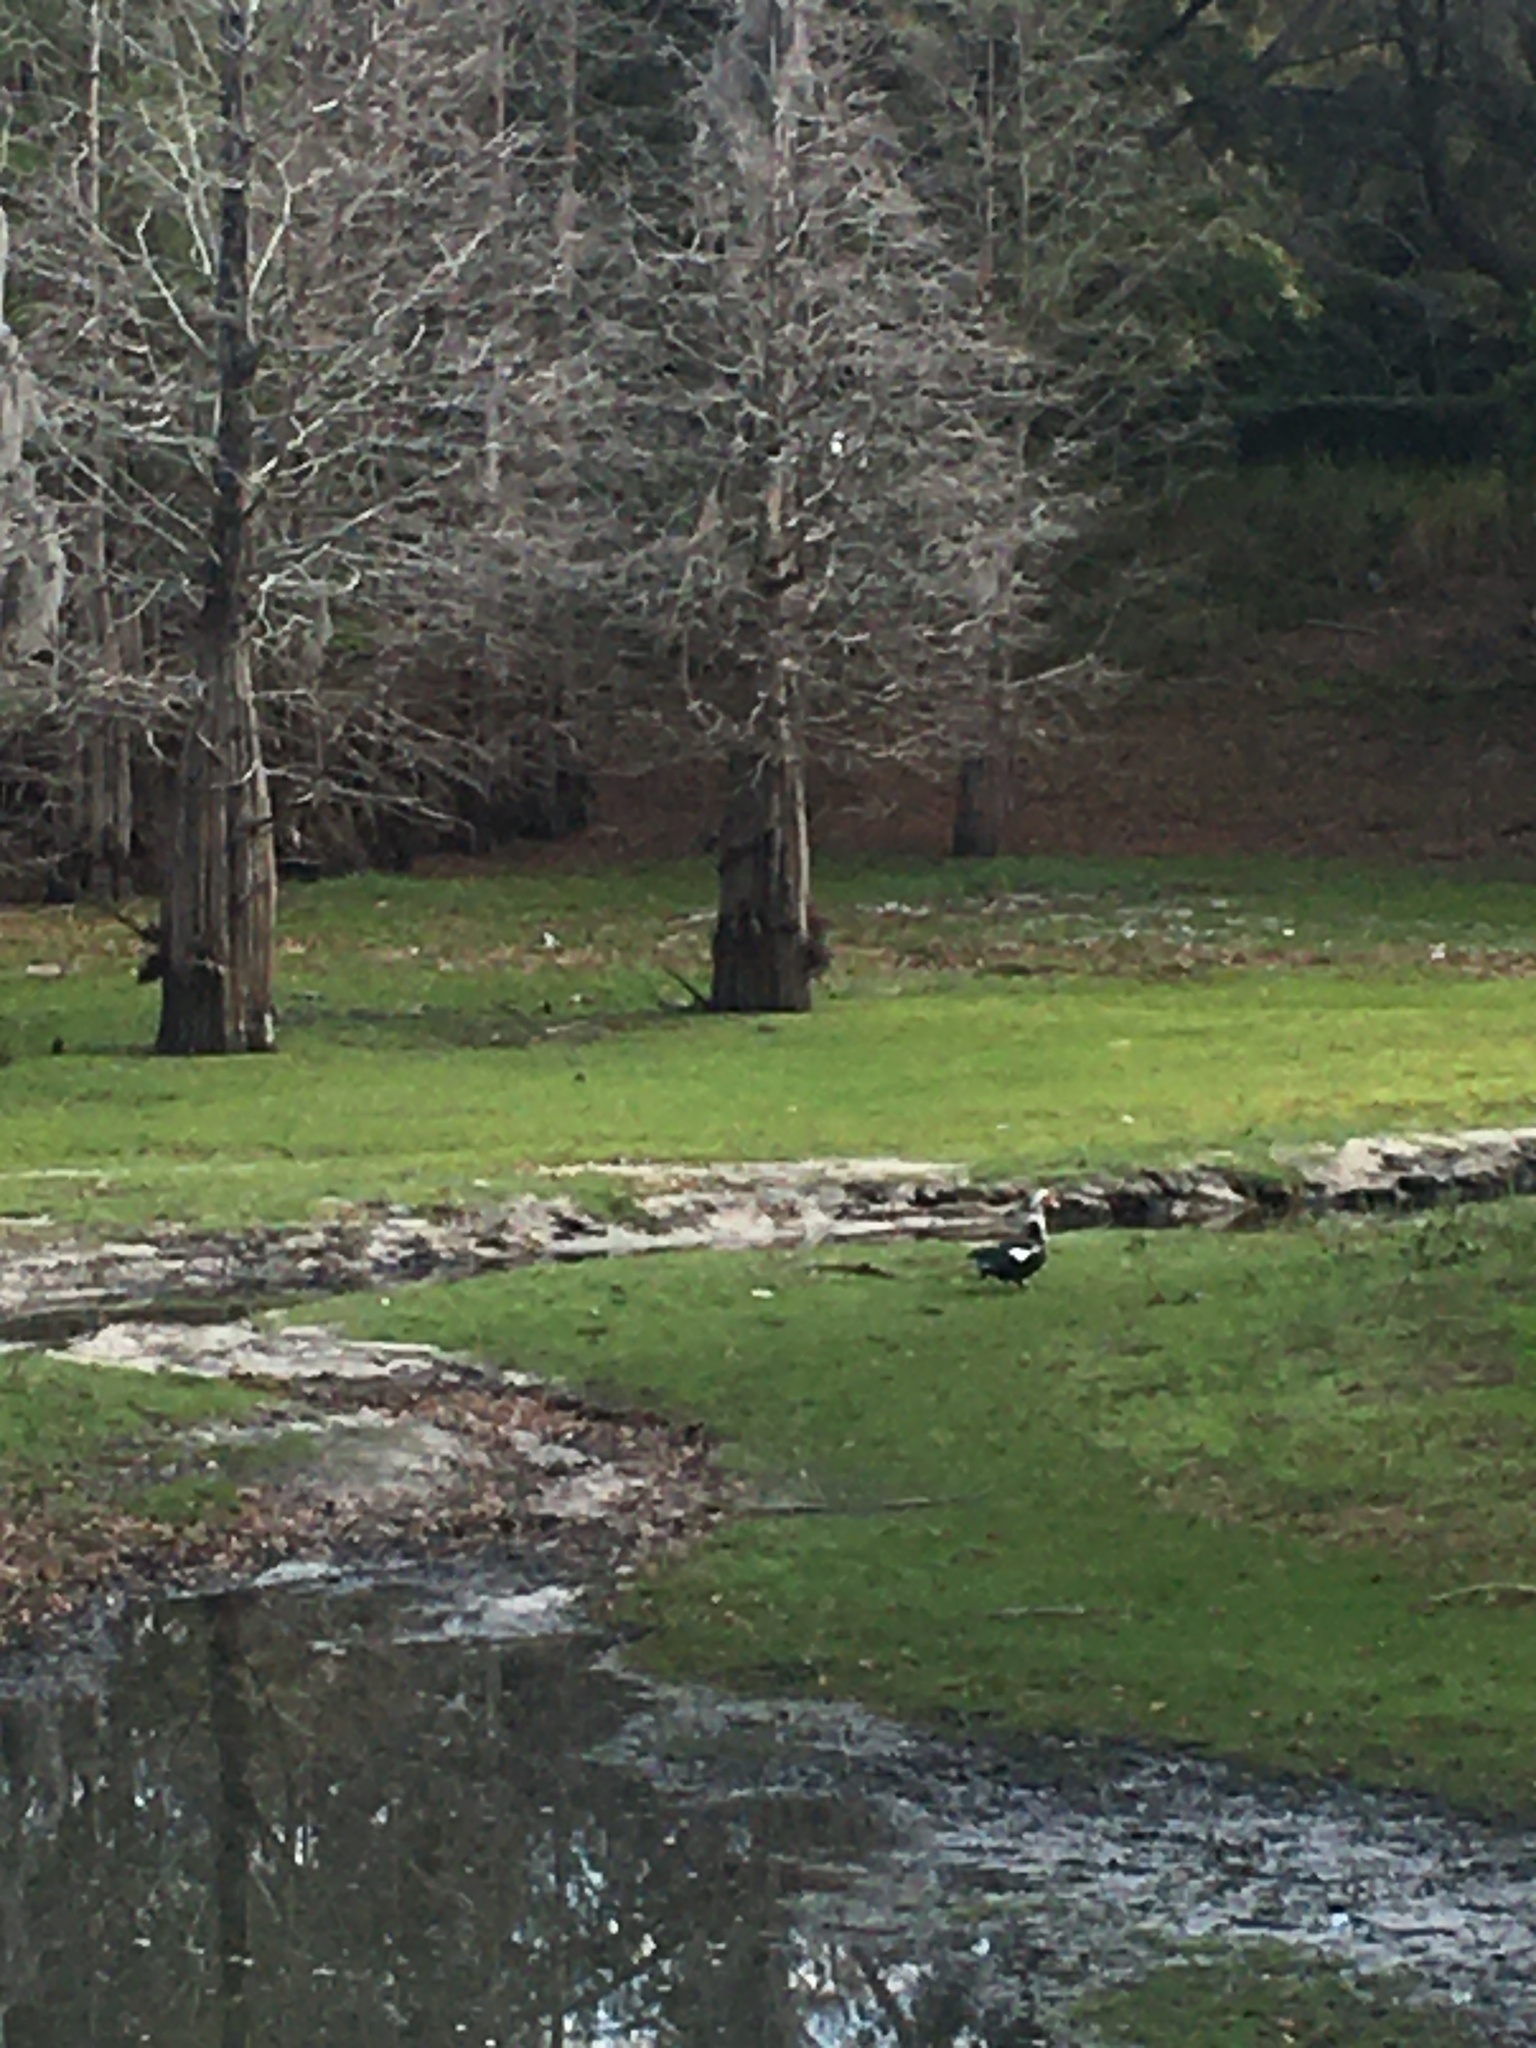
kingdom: Animalia
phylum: Chordata
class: Aves
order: Anseriformes
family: Anatidae
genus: Cairina
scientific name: Cairina moschata
